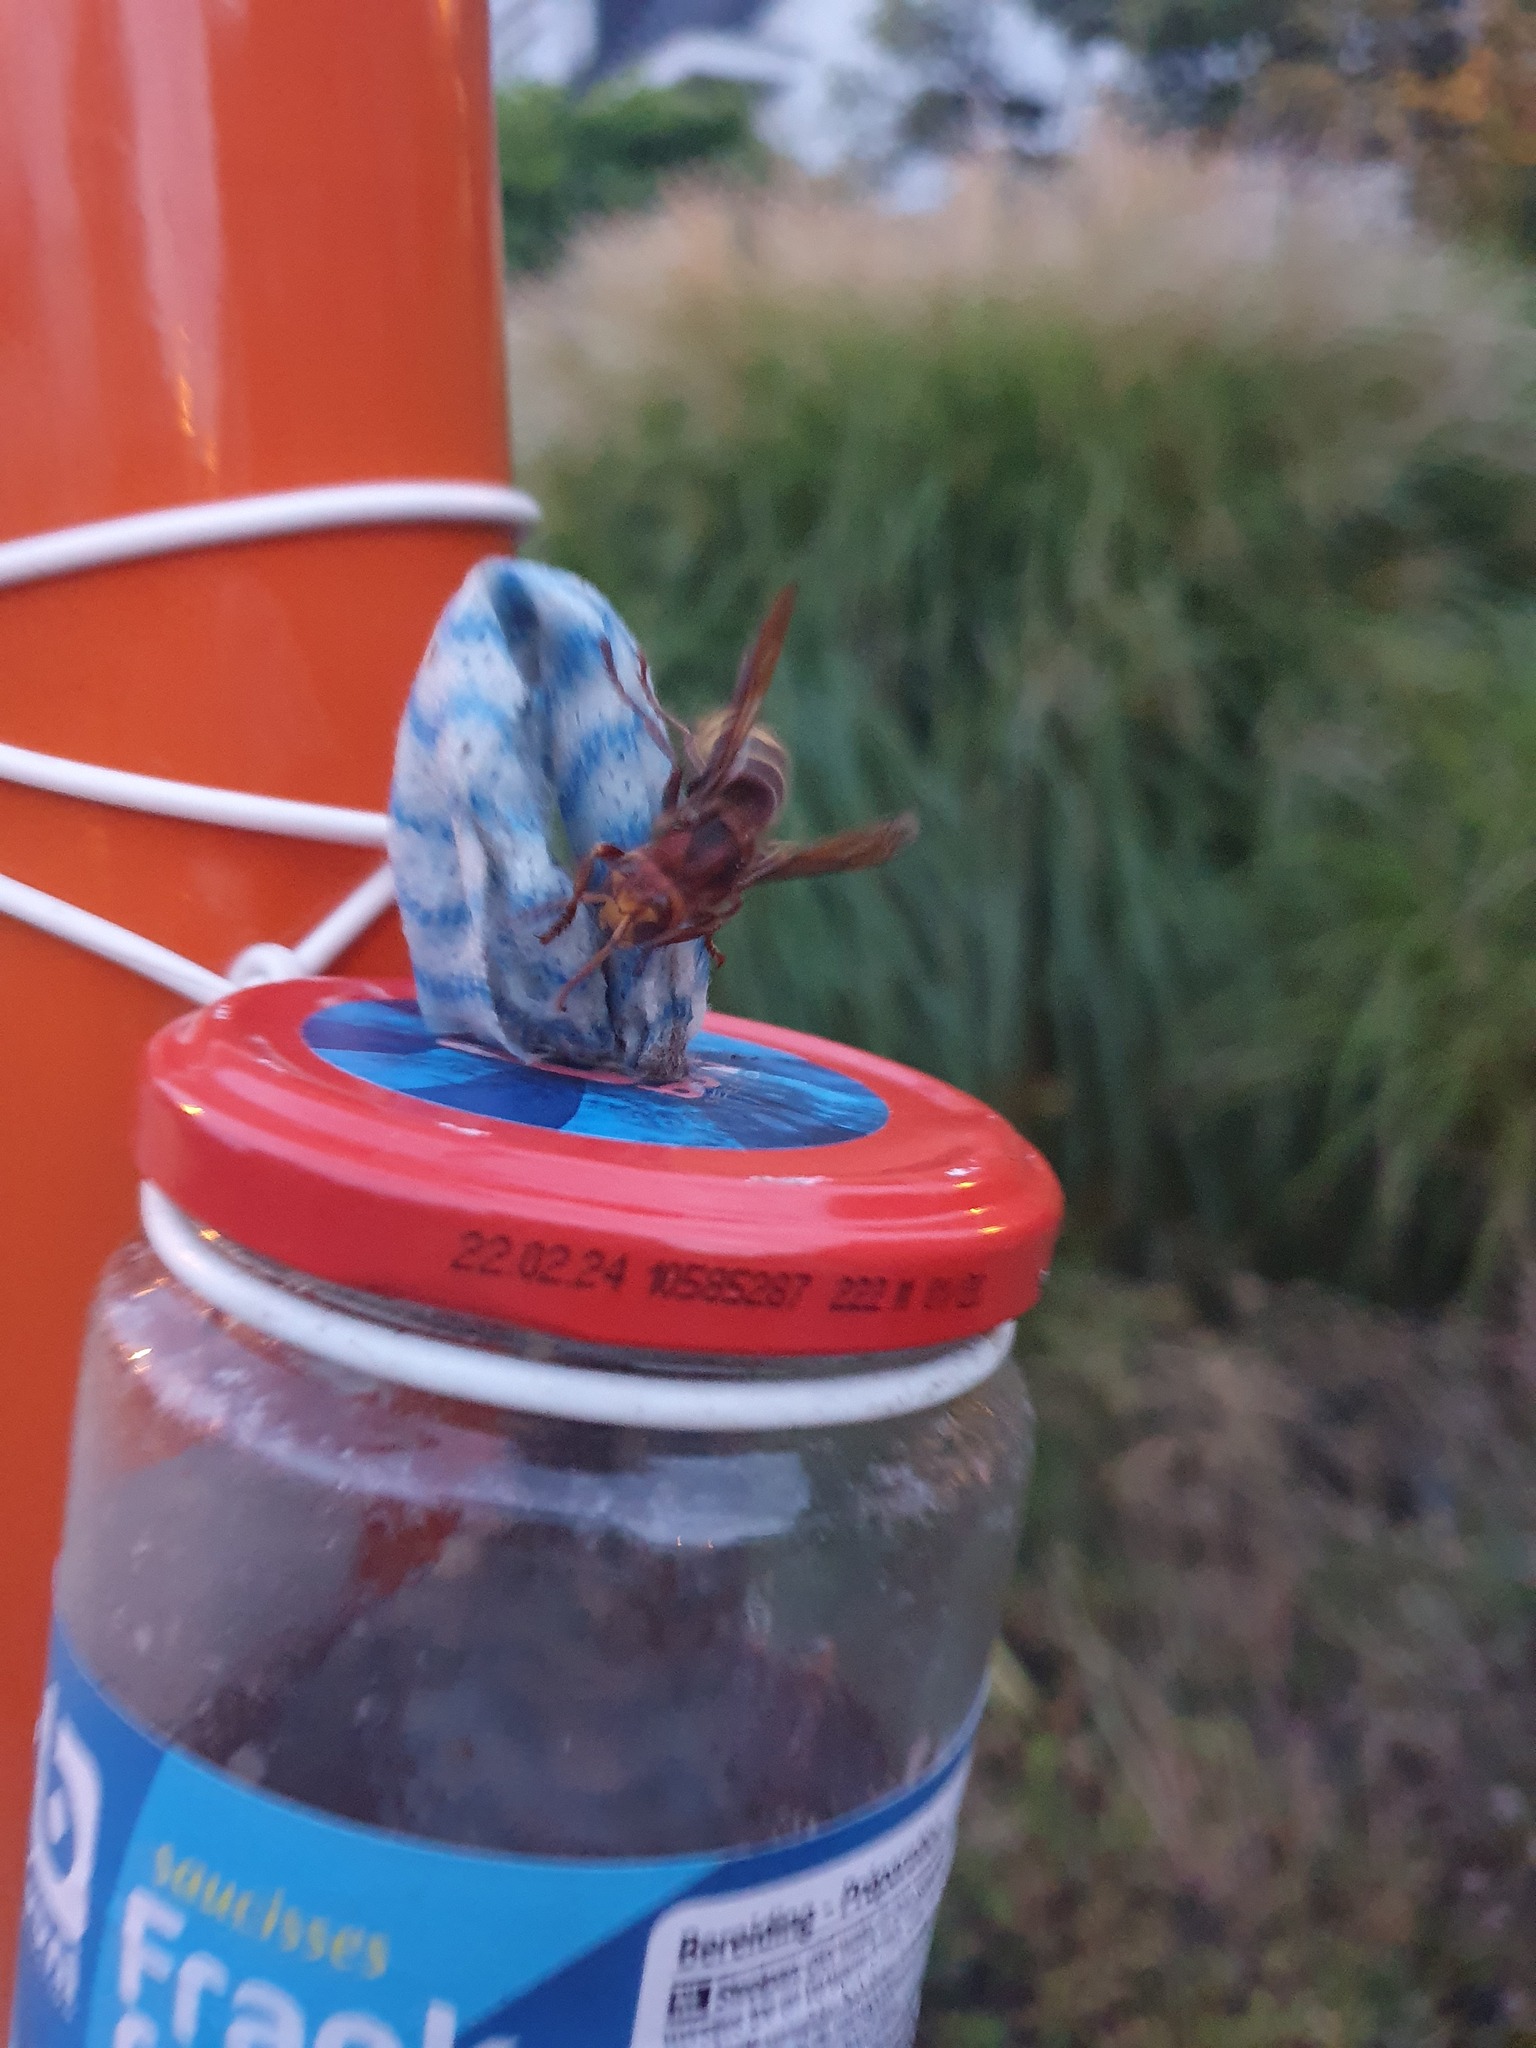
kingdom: Animalia
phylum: Arthropoda
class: Insecta
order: Hymenoptera
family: Vespidae
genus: Vespa
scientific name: Vespa crabro
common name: Hornet
